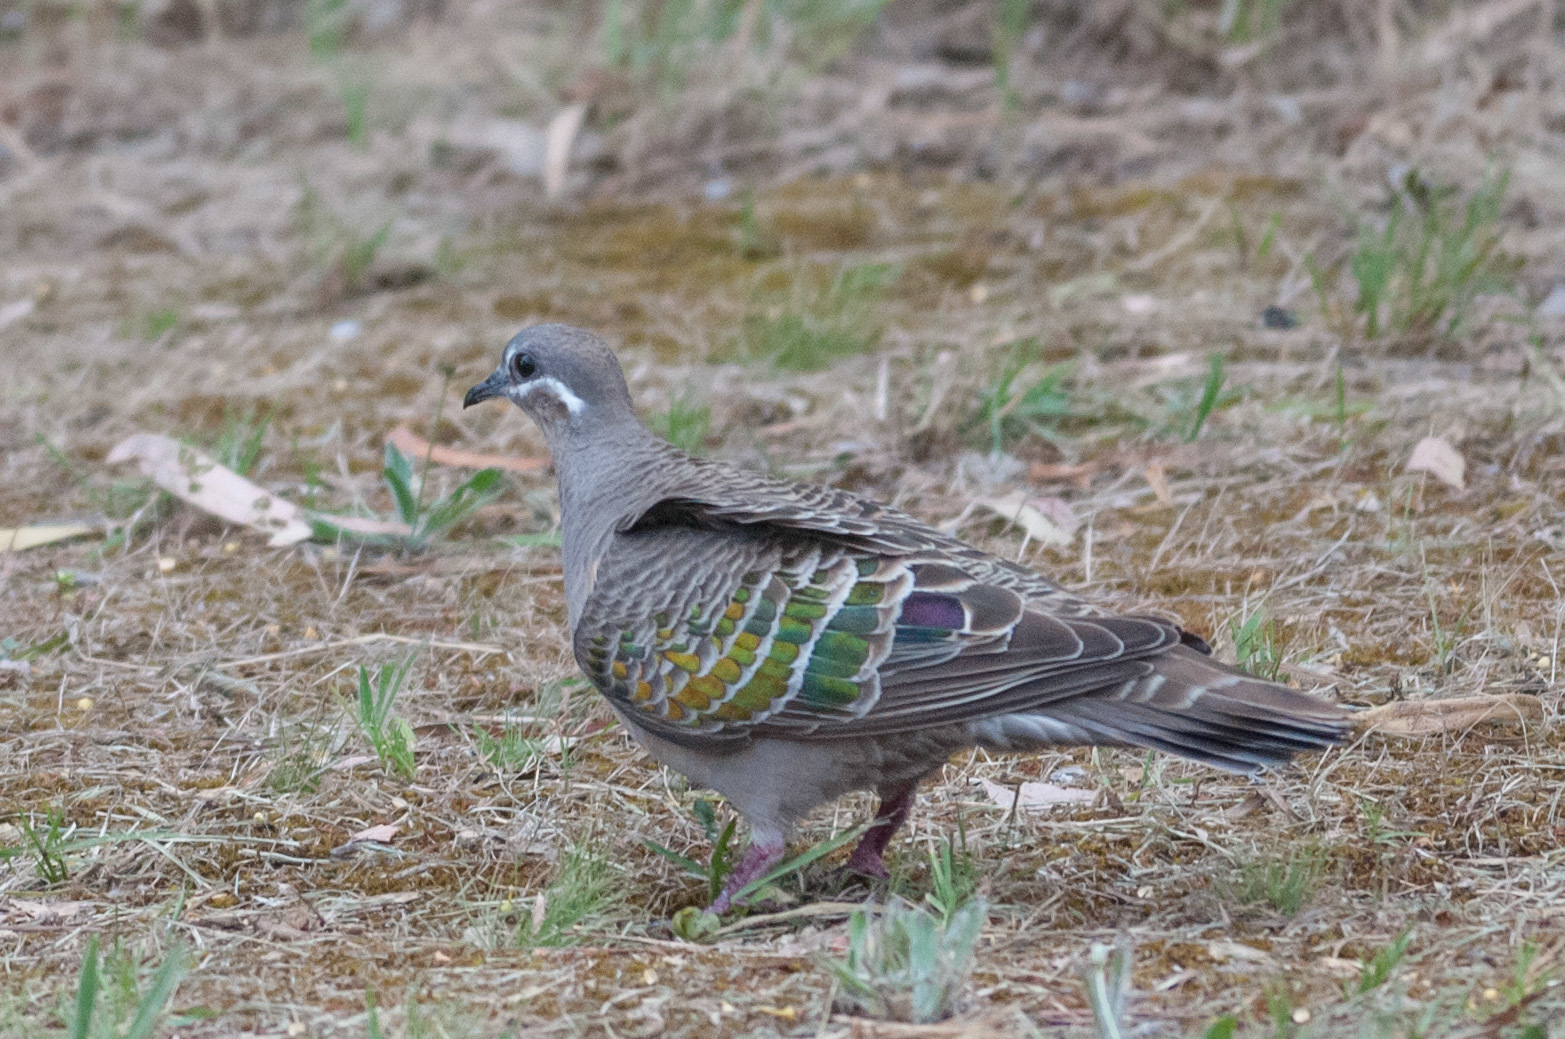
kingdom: Animalia
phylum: Chordata
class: Aves
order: Columbiformes
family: Columbidae
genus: Phaps
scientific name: Phaps chalcoptera
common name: Common bronzewing
